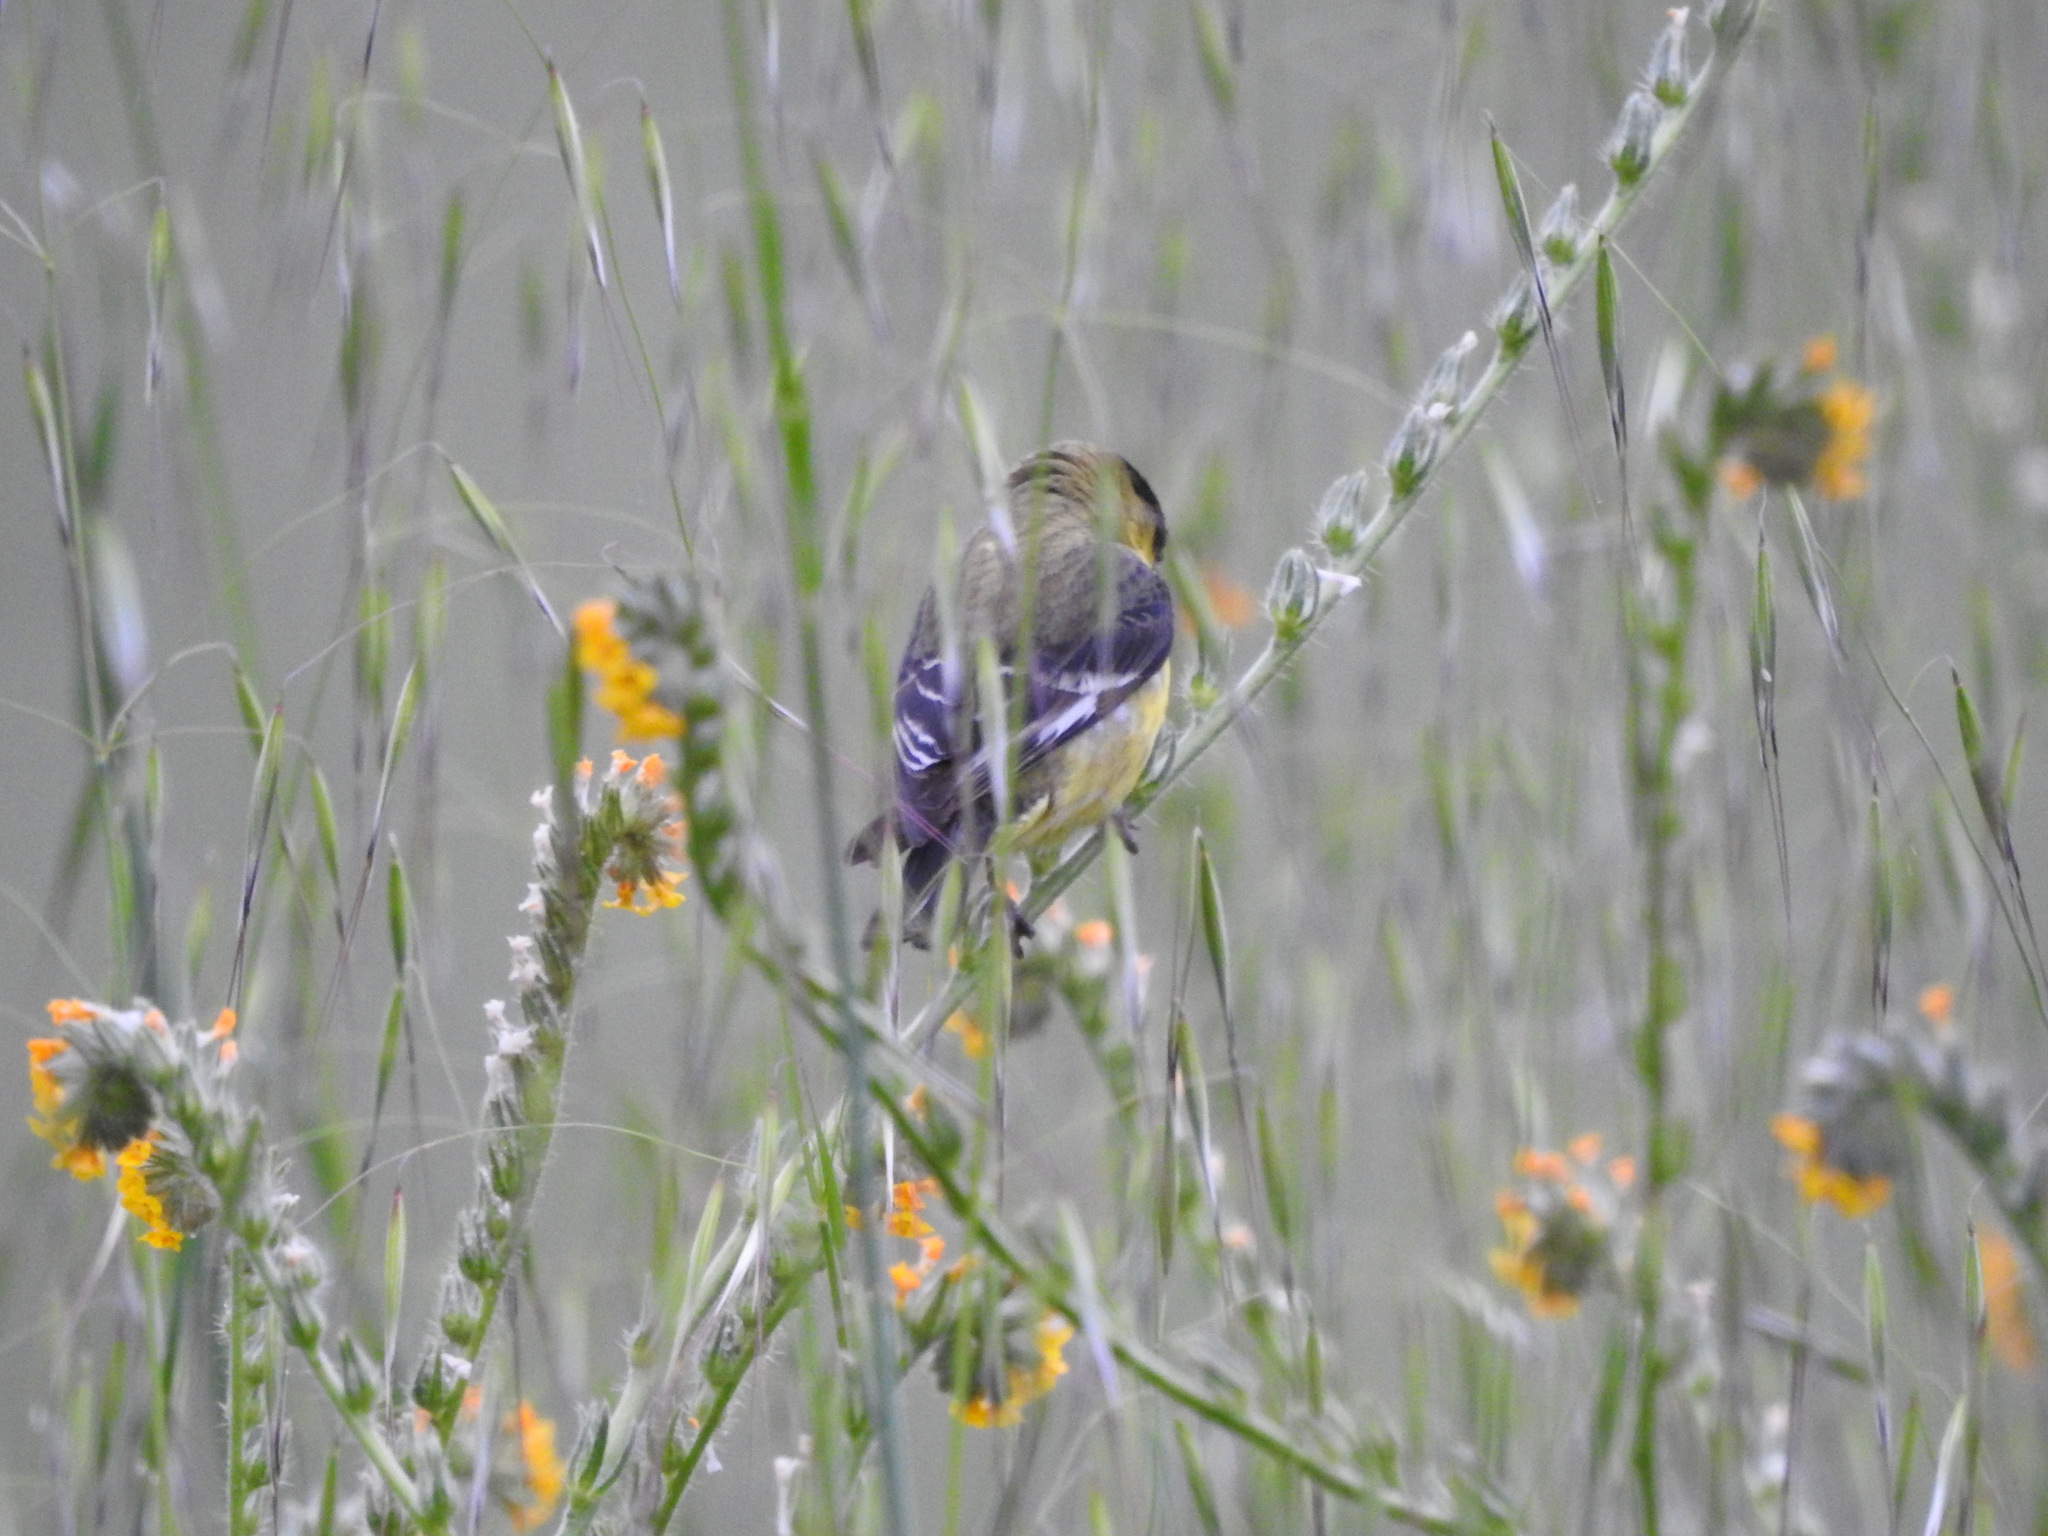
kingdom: Animalia
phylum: Chordata
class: Aves
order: Passeriformes
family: Fringillidae
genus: Spinus
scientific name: Spinus psaltria
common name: Lesser goldfinch
